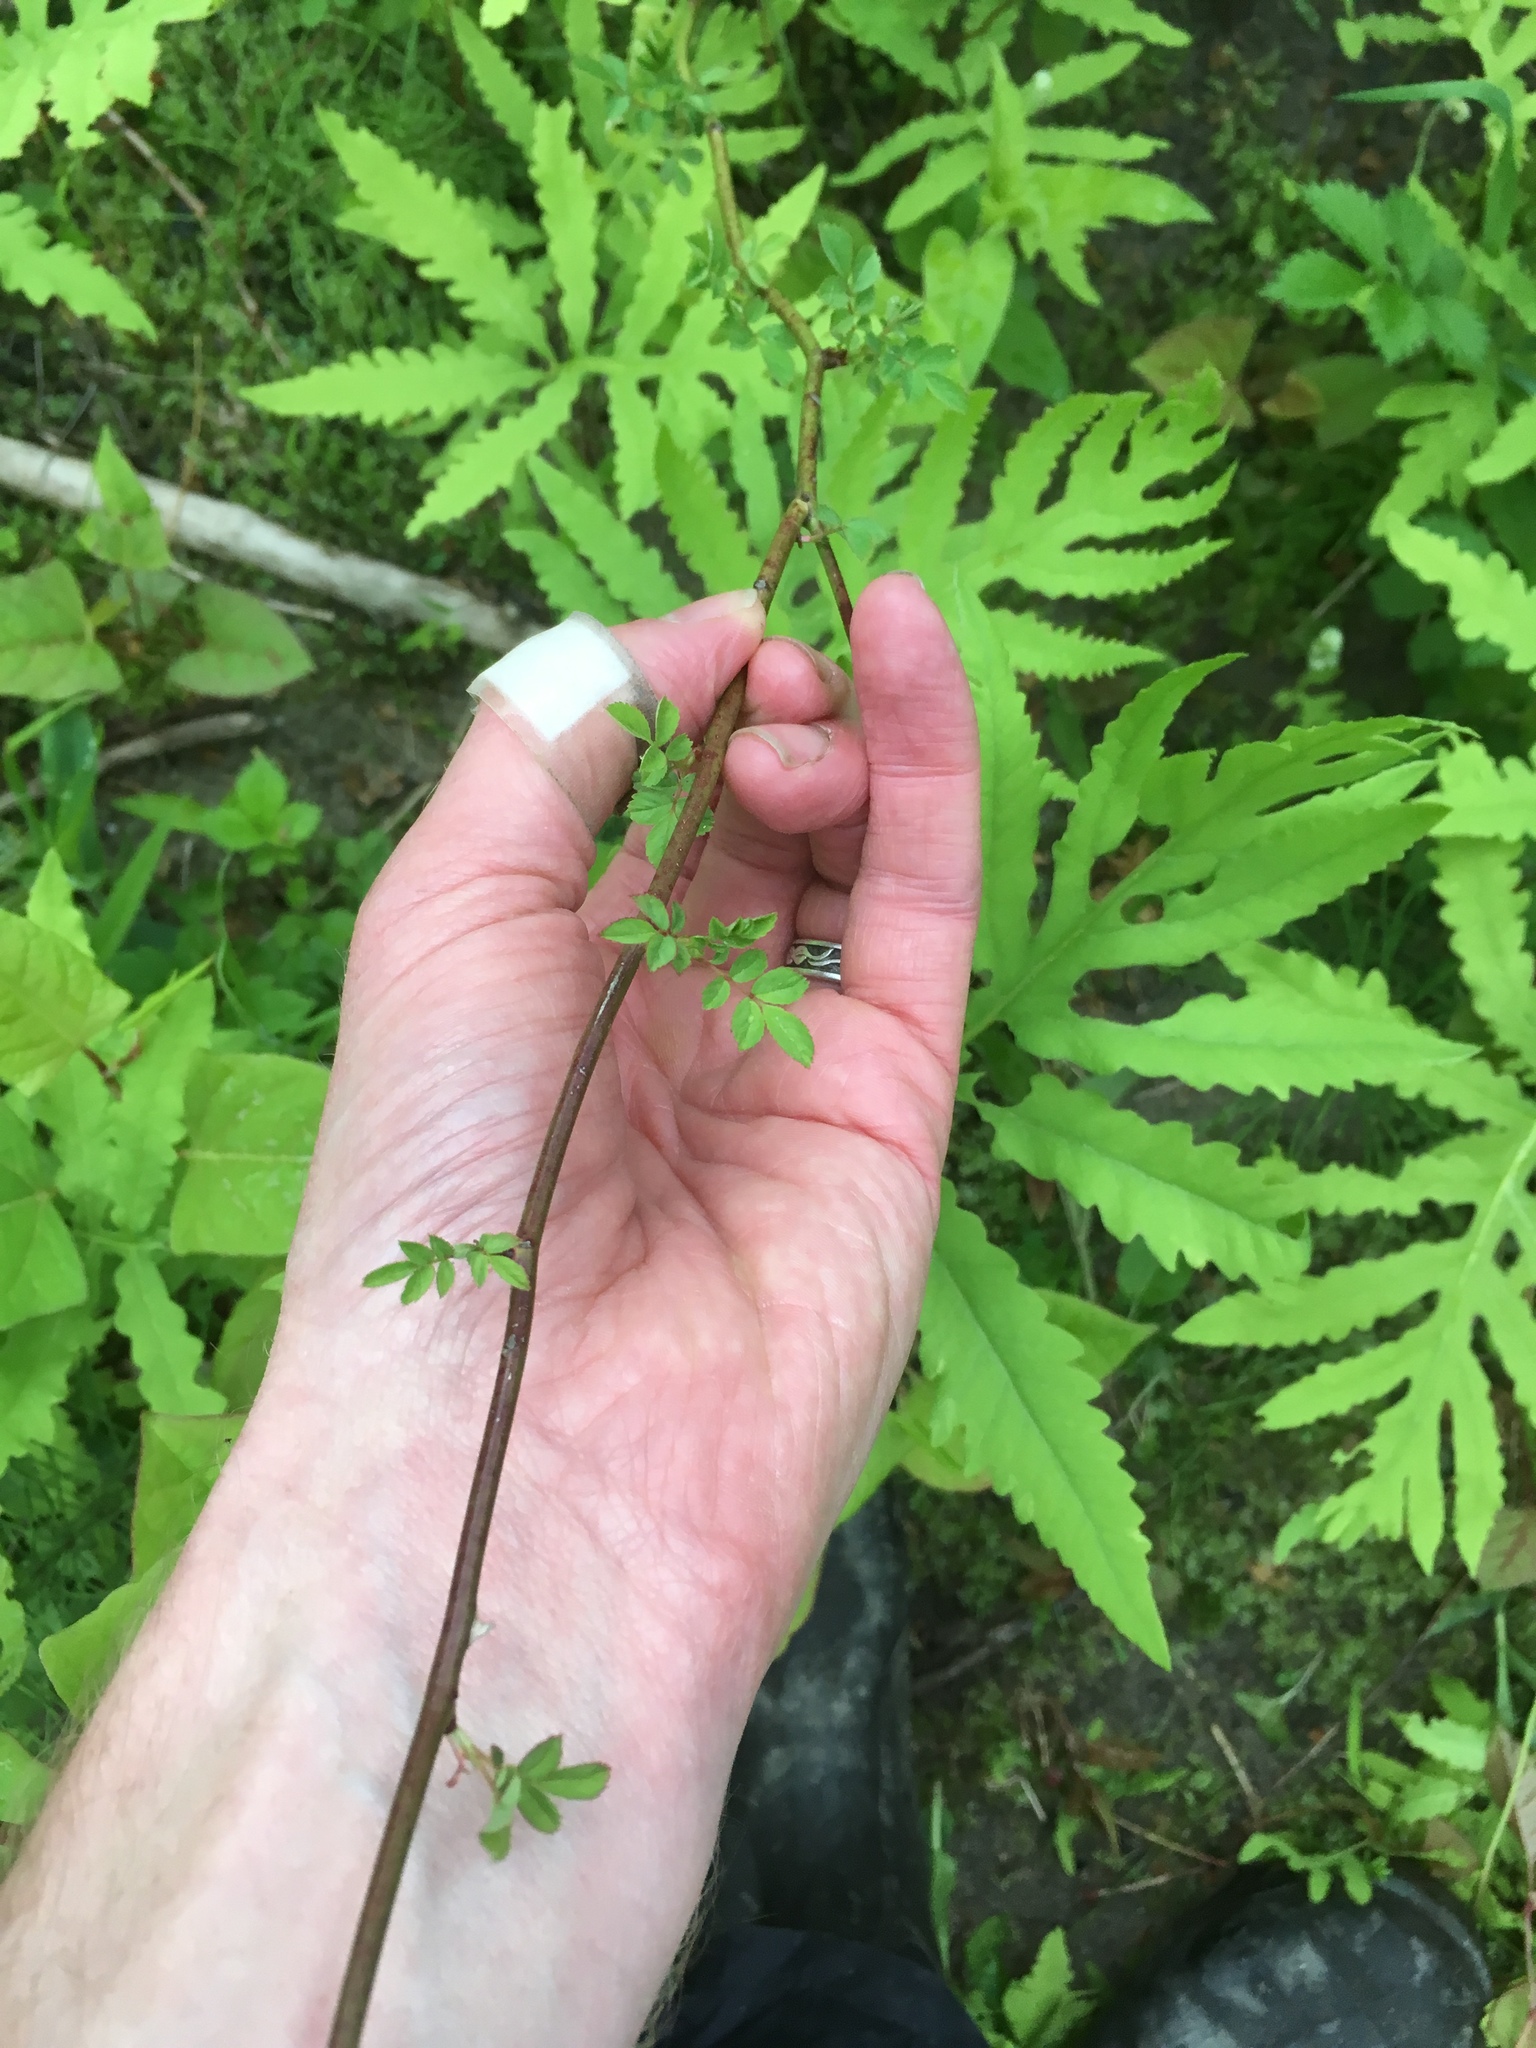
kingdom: Plantae
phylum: Tracheophyta
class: Magnoliopsida
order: Rosales
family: Rosaceae
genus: Rosa
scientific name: Rosa multiflora
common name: Multiflora rose
